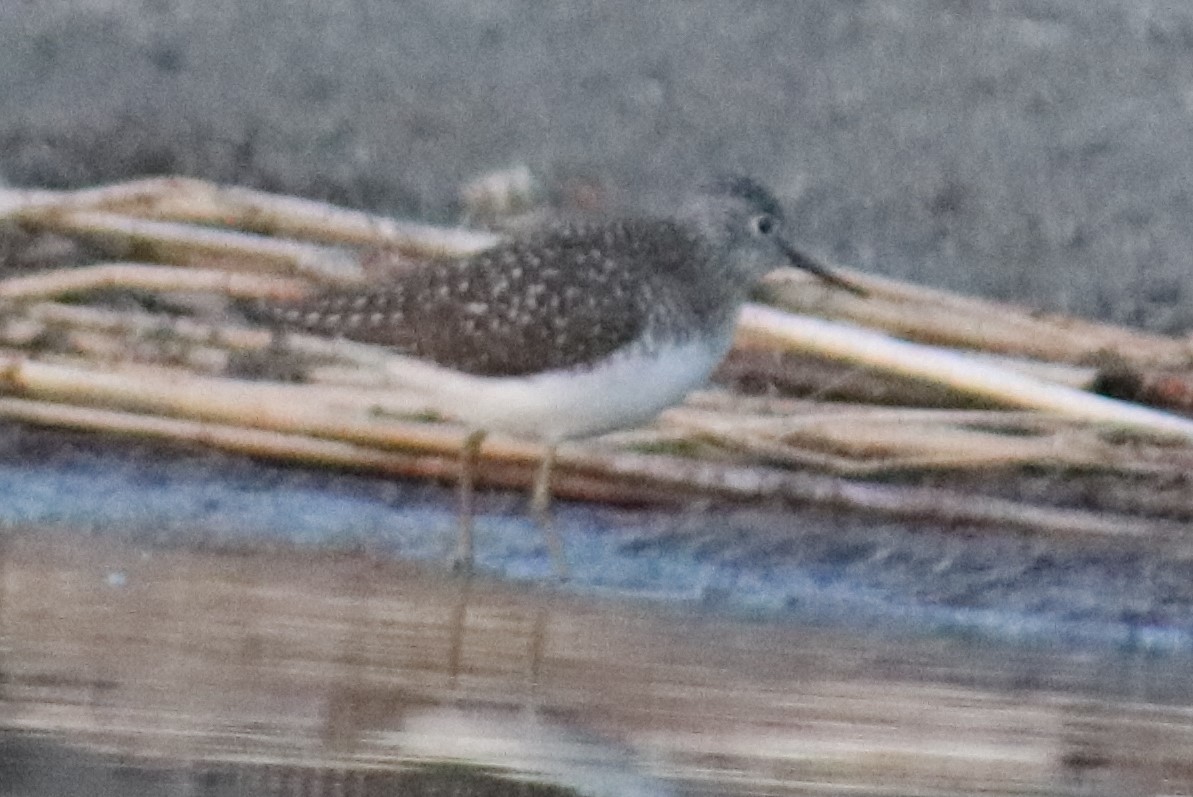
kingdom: Animalia
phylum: Chordata
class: Aves
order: Charadriiformes
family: Scolopacidae
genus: Tringa
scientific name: Tringa solitaria
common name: Solitary sandpiper
